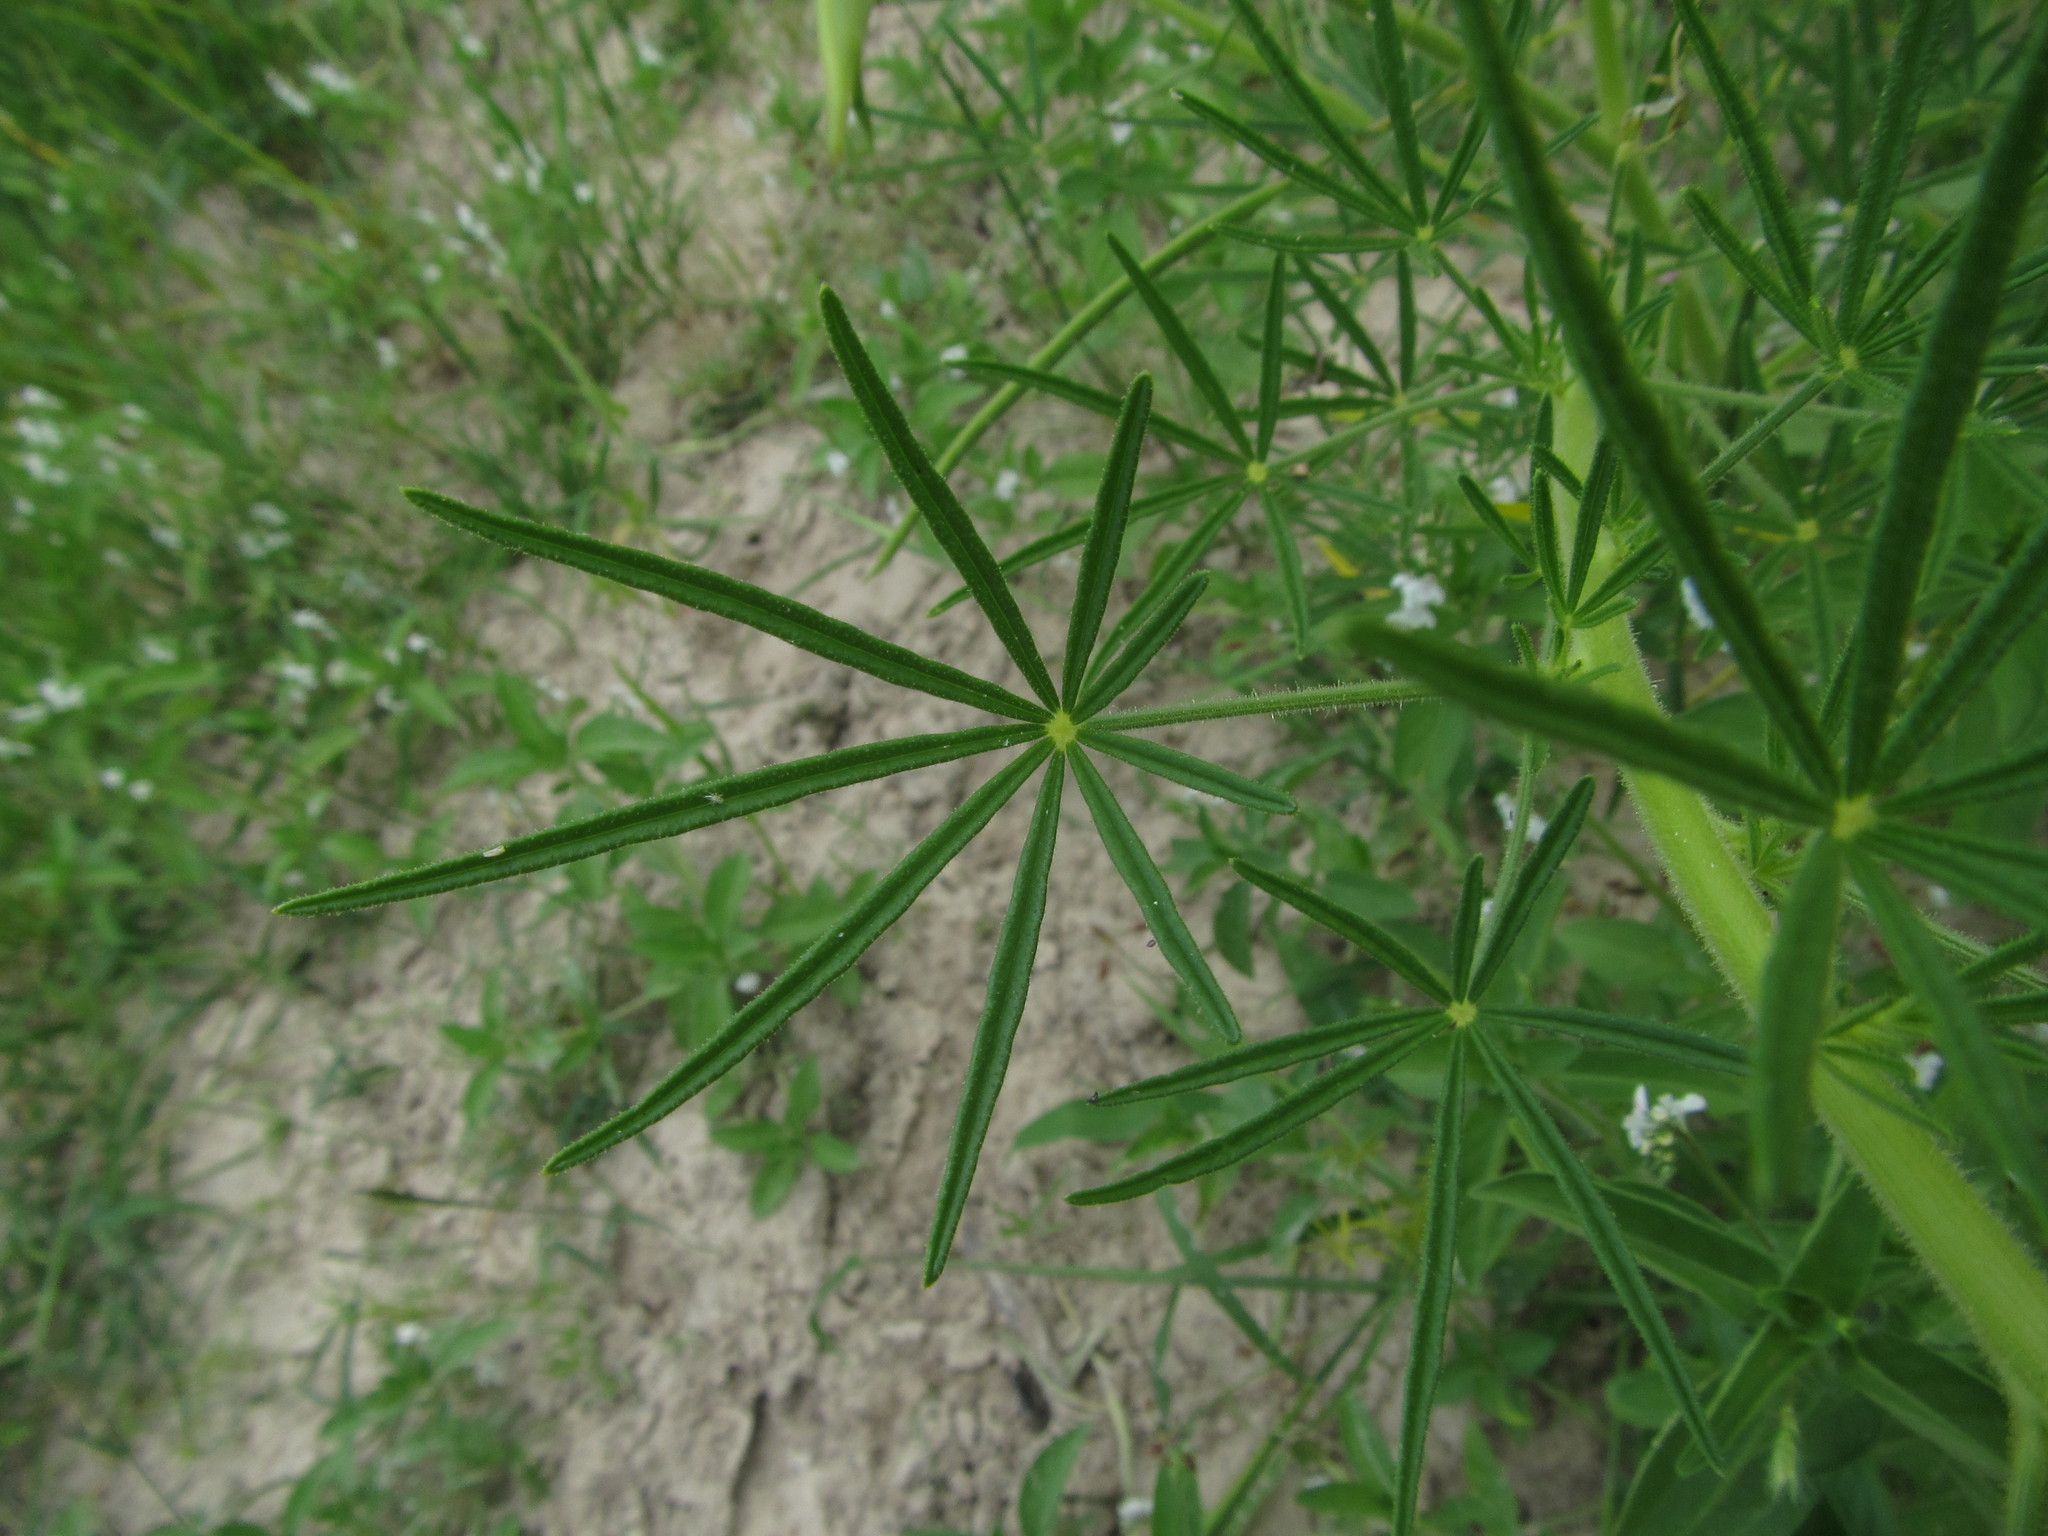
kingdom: Plantae
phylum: Tracheophyta
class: Magnoliopsida
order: Brassicales
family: Cleomaceae
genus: Sieruela
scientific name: Sieruela
